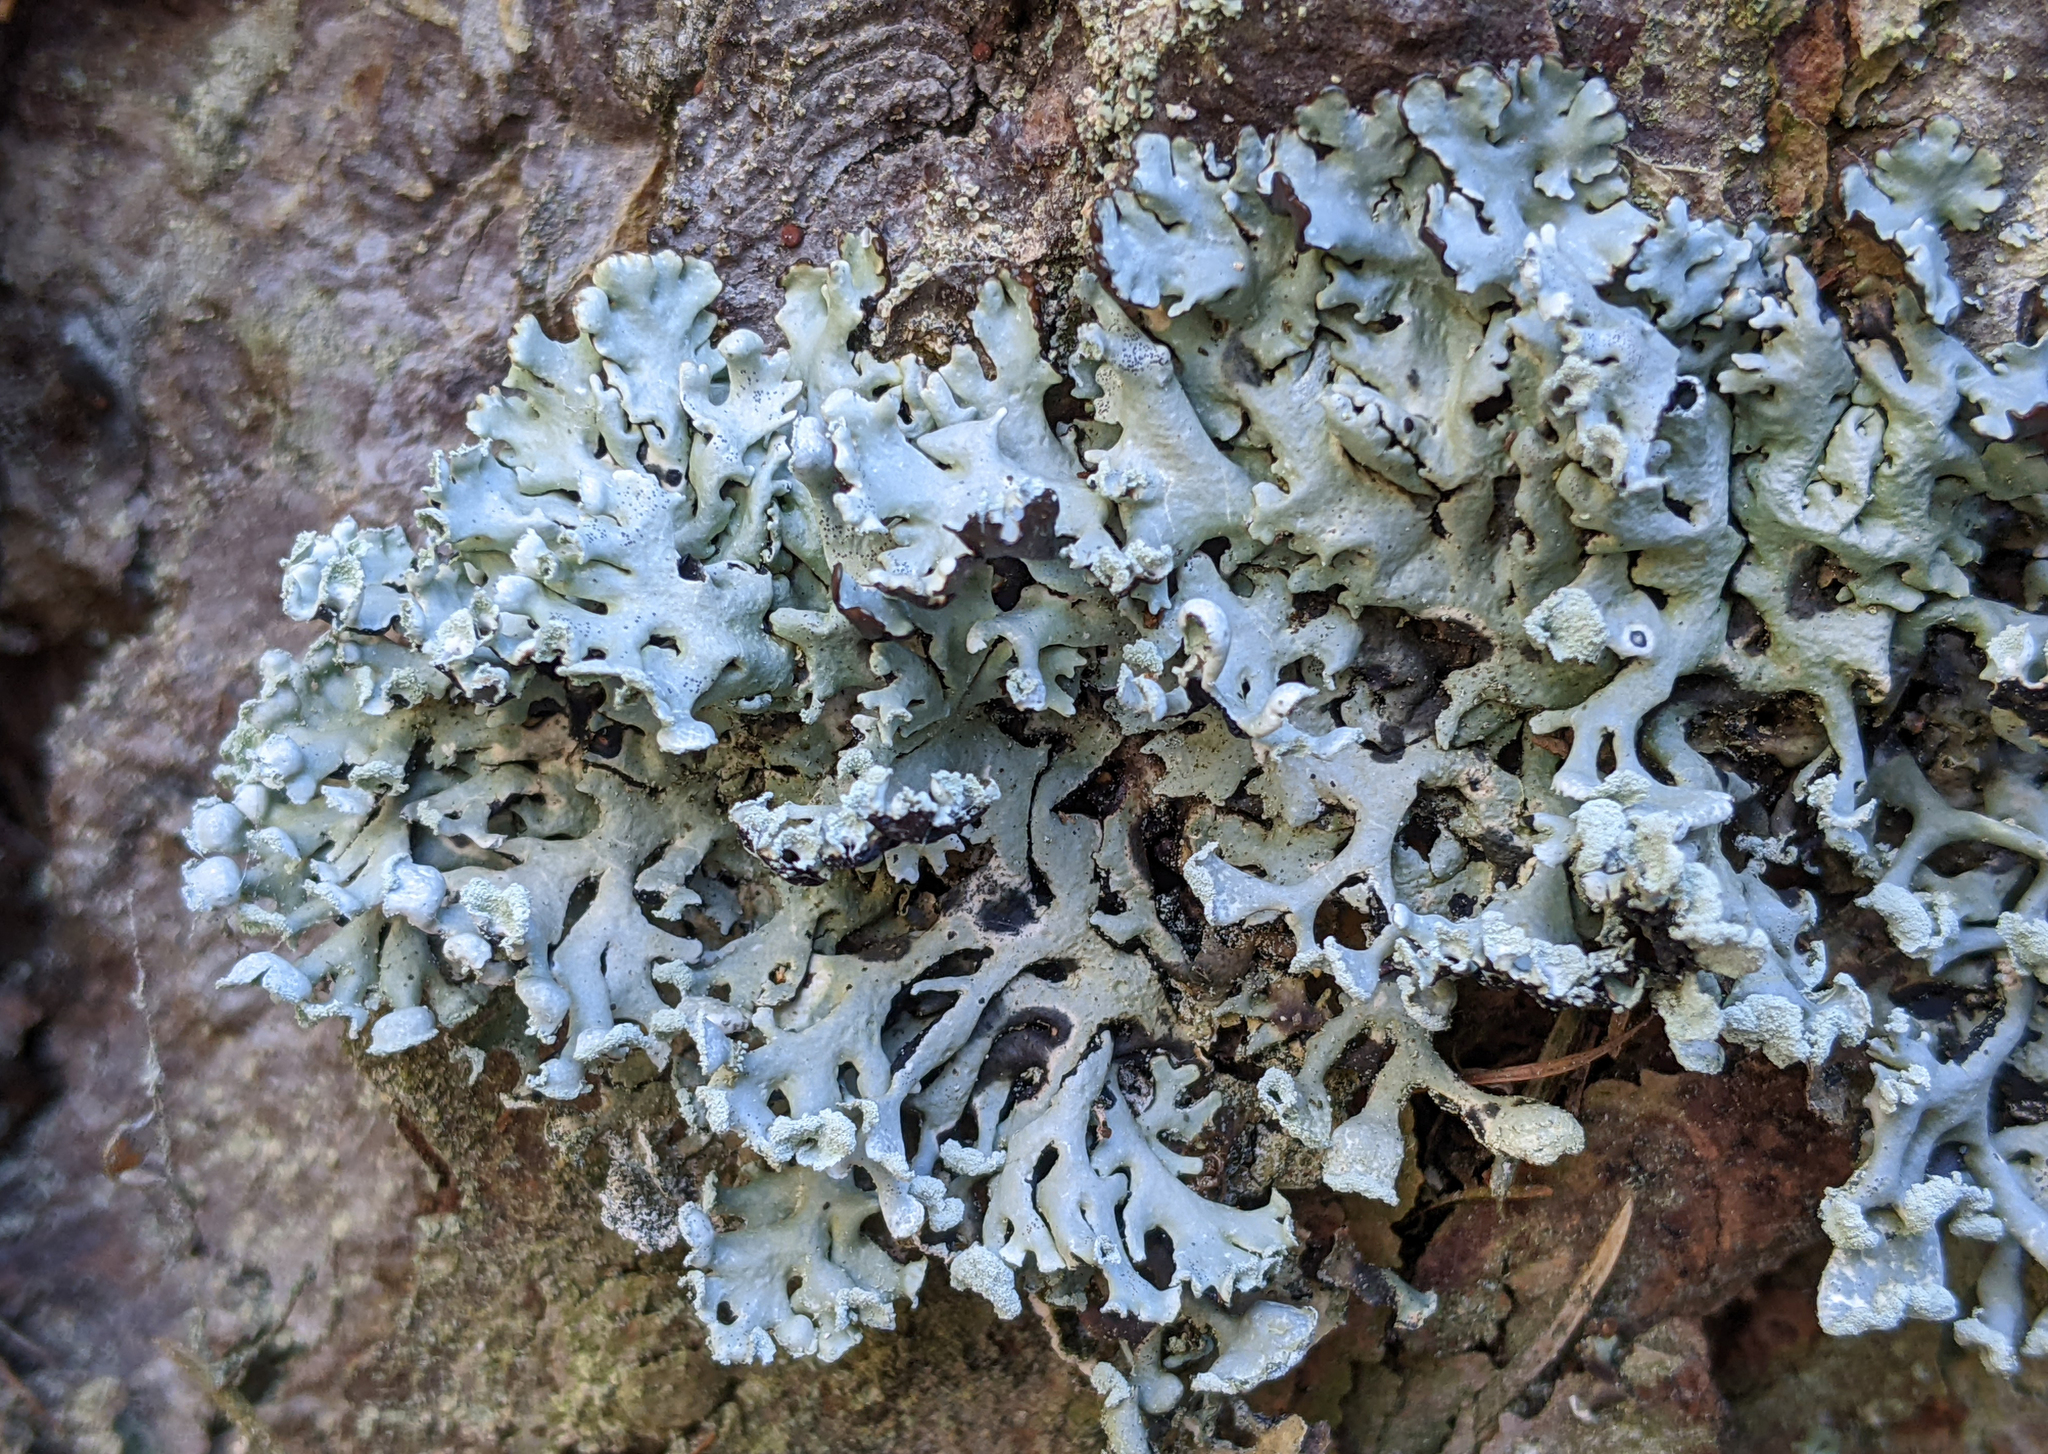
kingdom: Fungi
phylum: Ascomycota
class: Lecanoromycetes
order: Lecanorales
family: Parmeliaceae
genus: Hypogymnia
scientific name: Hypogymnia physodes
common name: Dark crottle
